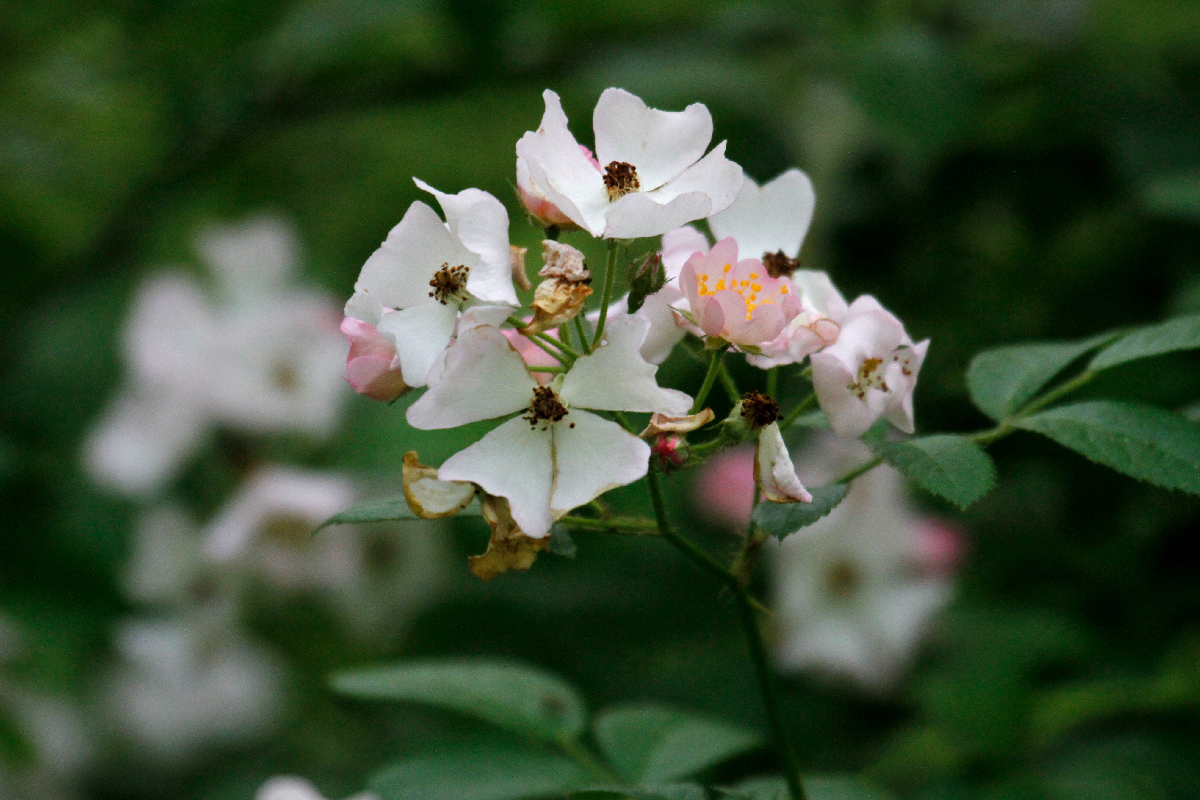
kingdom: Plantae
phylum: Tracheophyta
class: Magnoliopsida
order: Rosales
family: Rosaceae
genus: Rosa
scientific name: Rosa multiflora
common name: Multiflora rose
